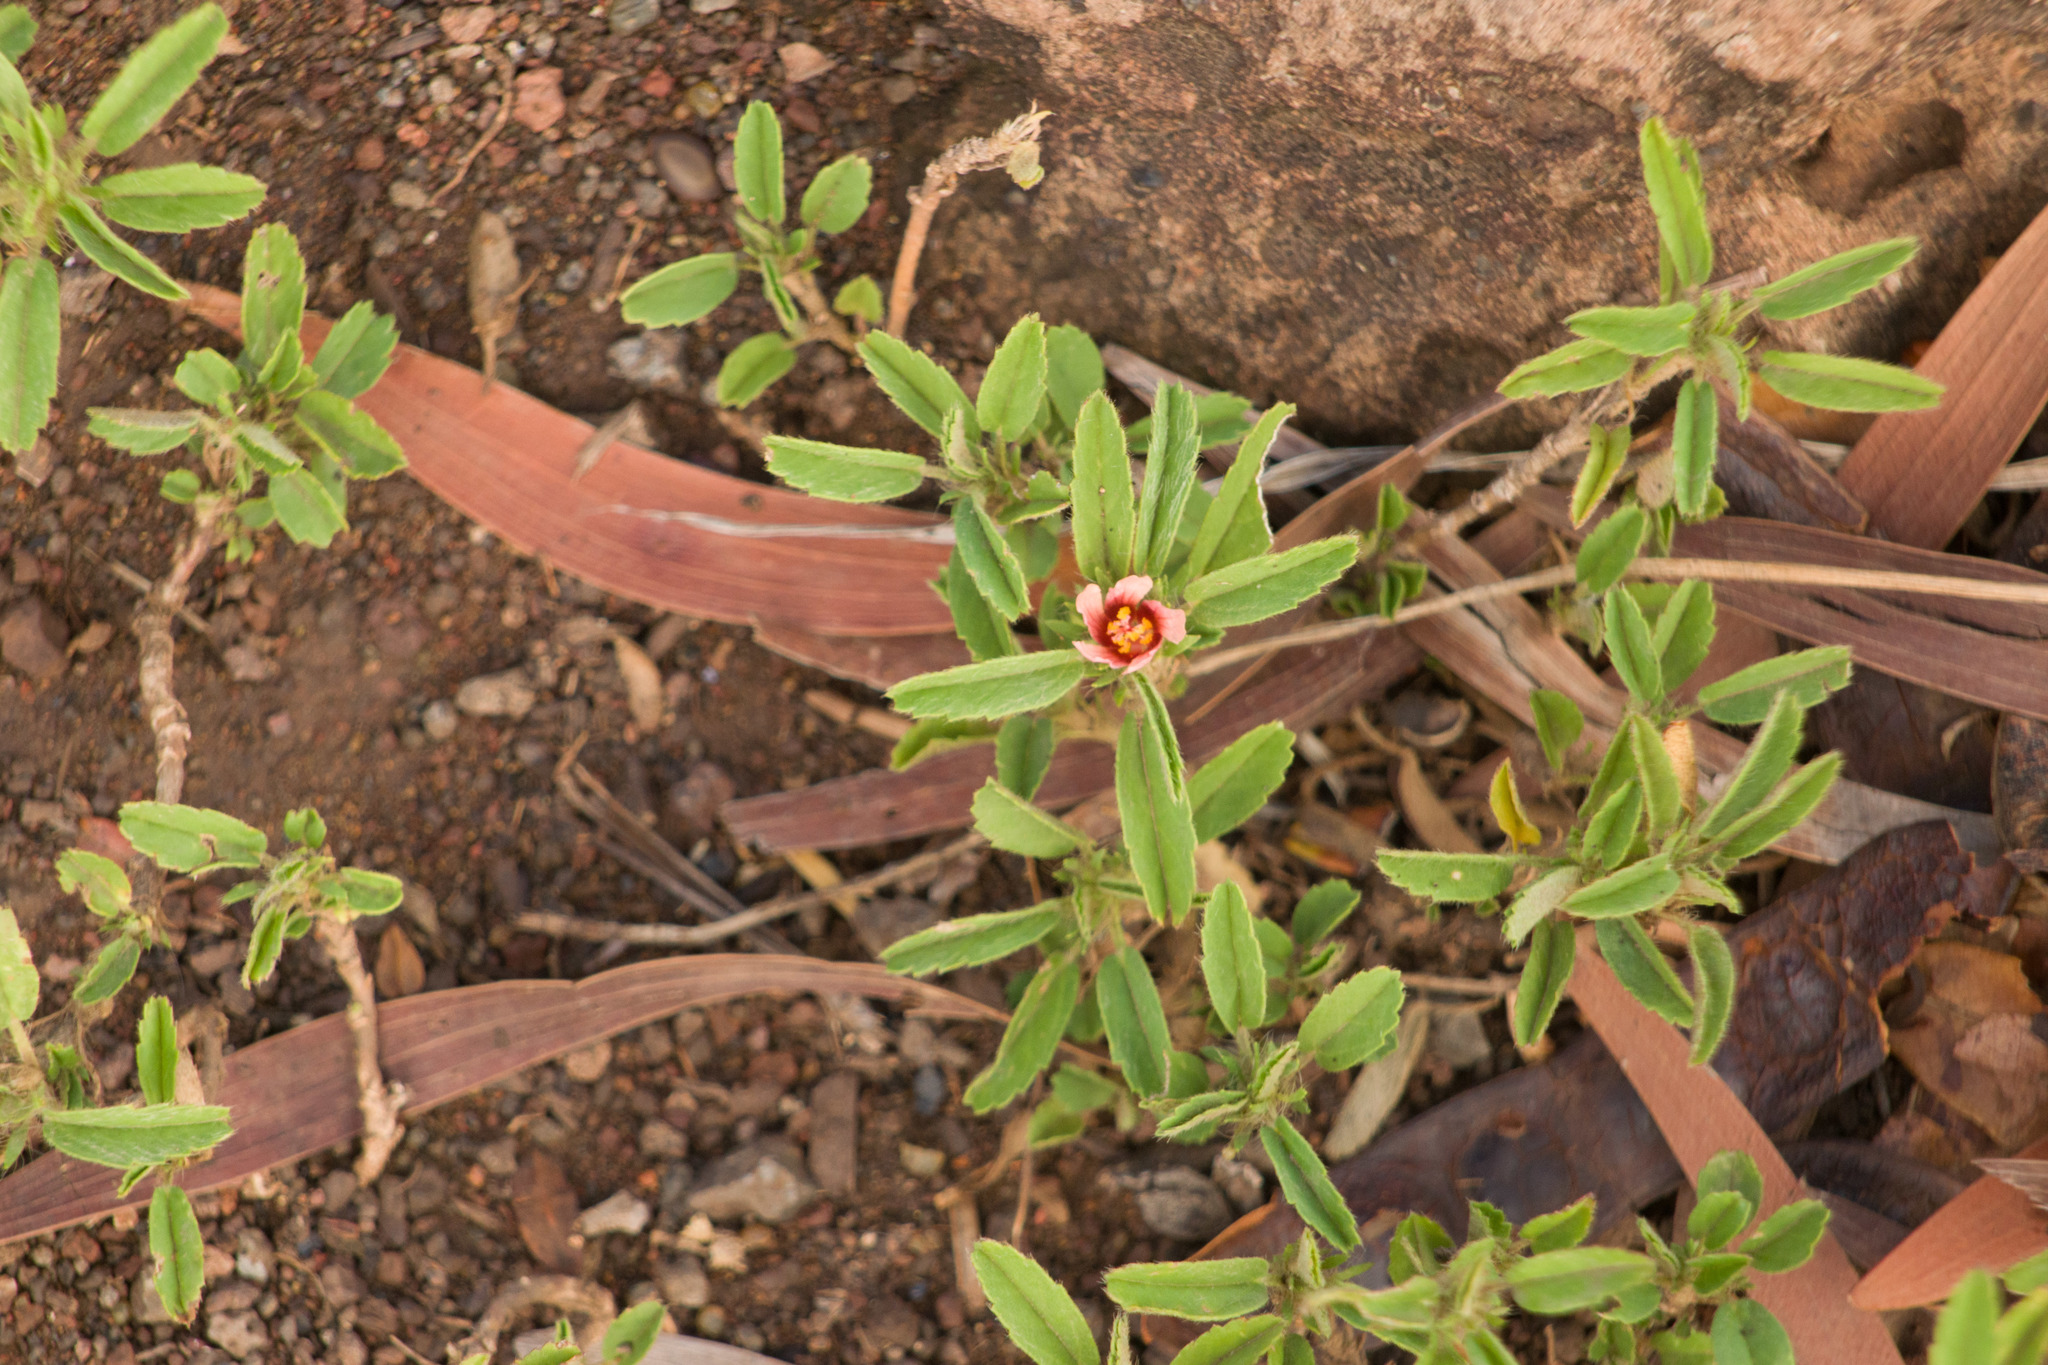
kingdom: Plantae
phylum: Tracheophyta
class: Magnoliopsida
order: Malvales
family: Malvaceae
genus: Sida
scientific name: Sida ciliaris
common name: Bracted fanpetals
